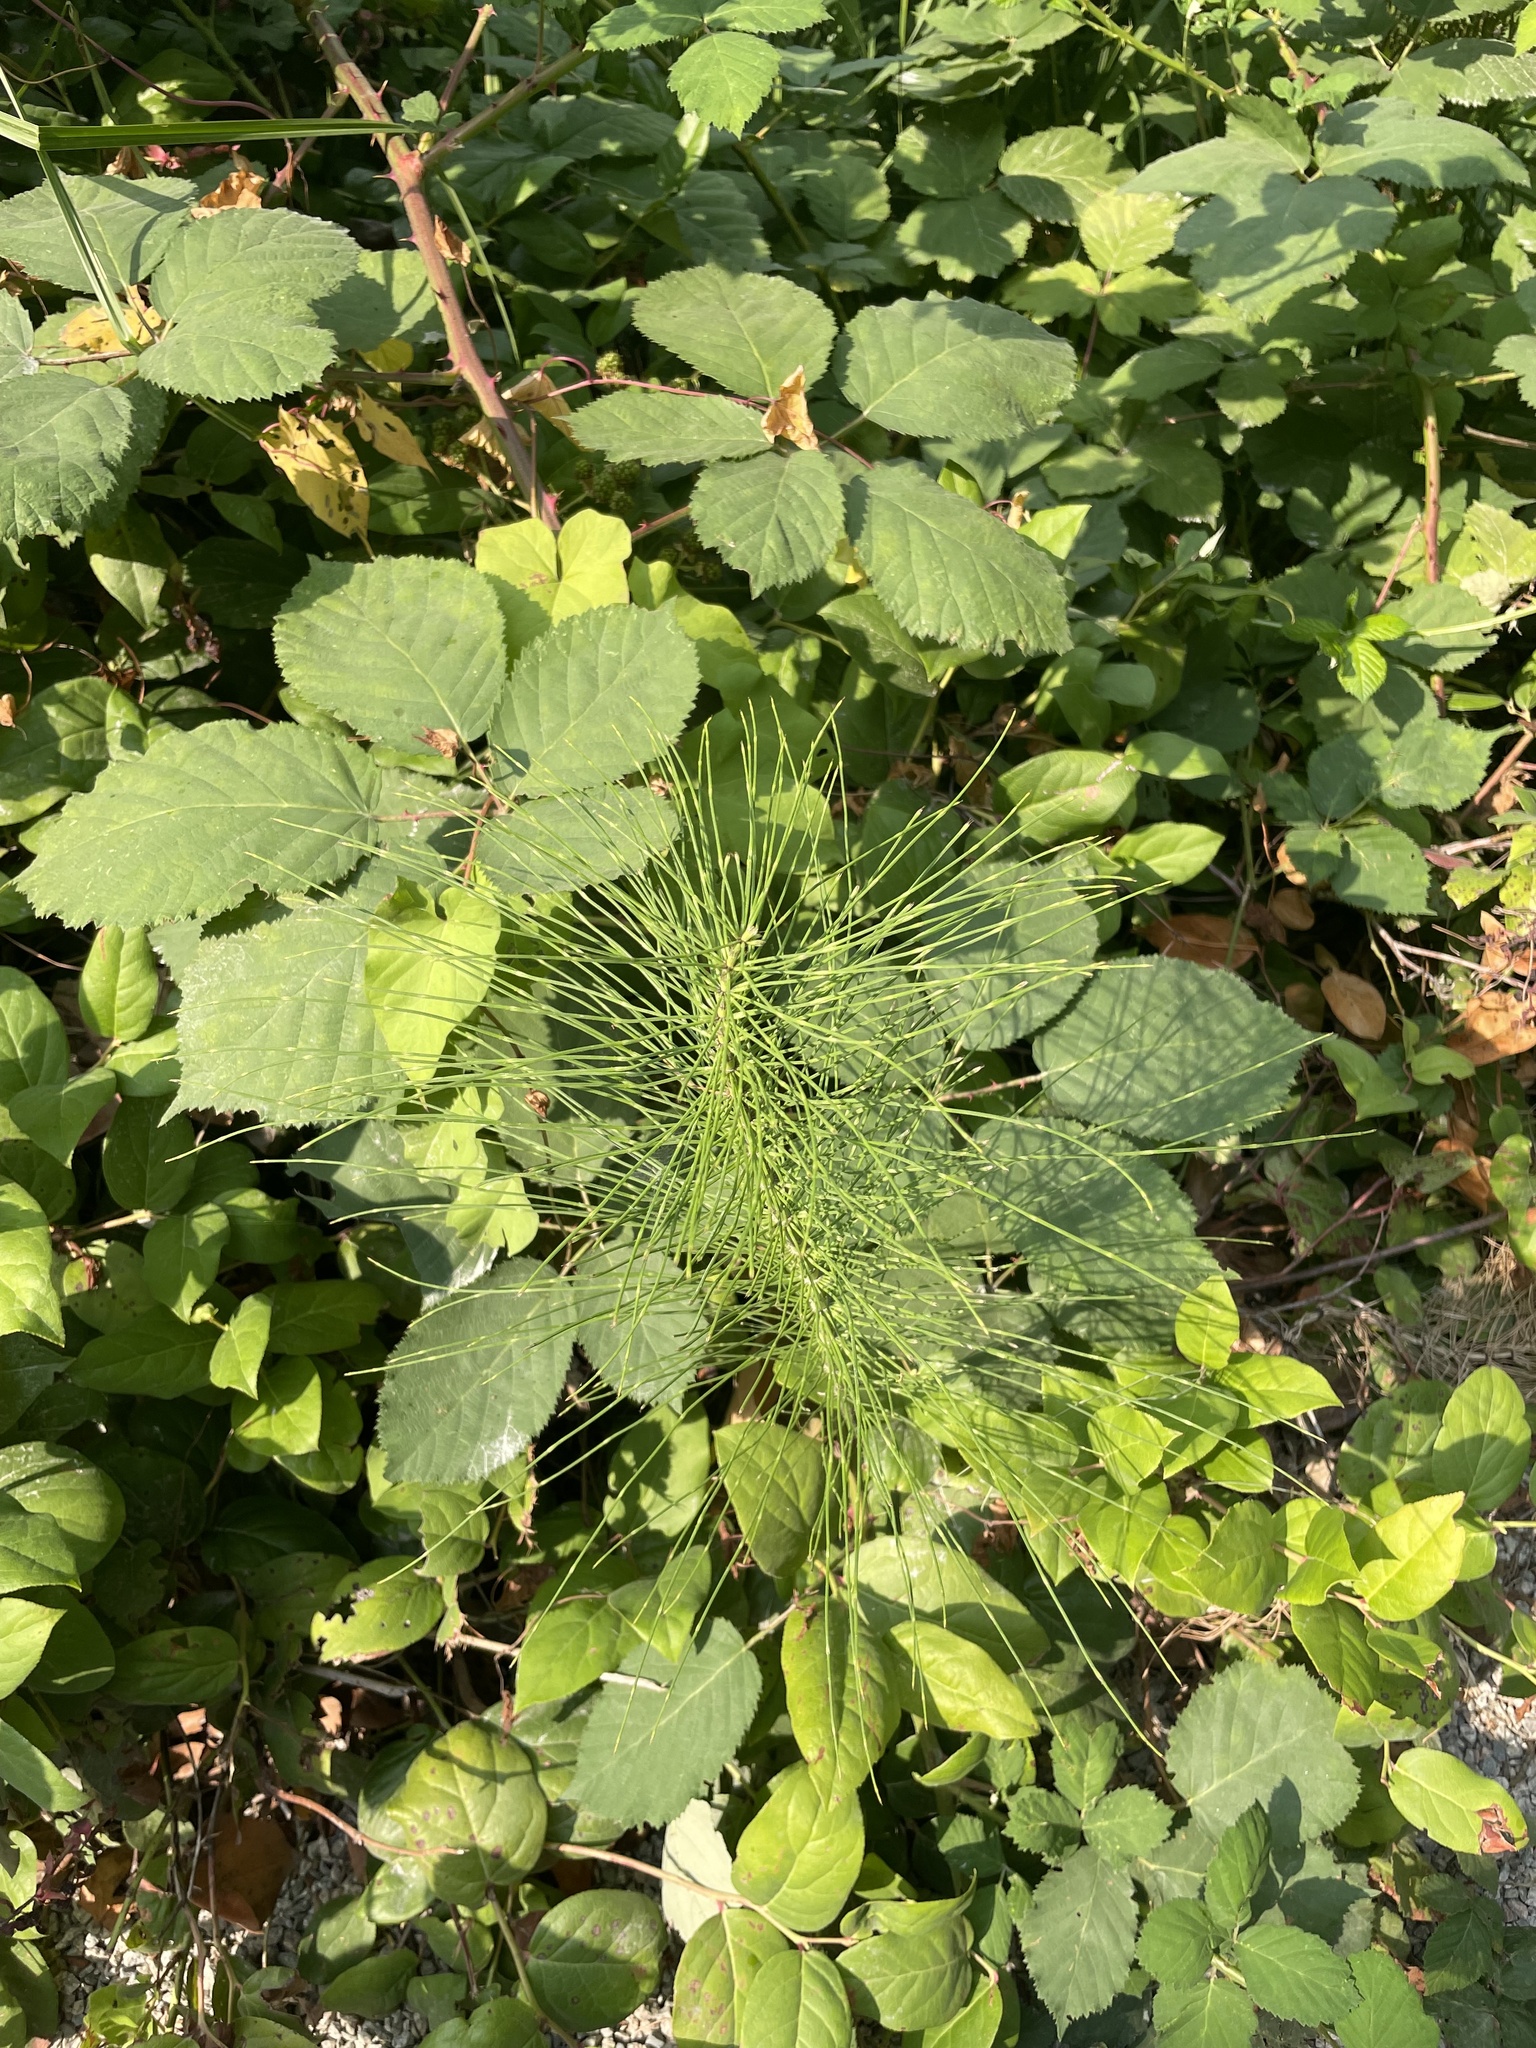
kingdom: Plantae
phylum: Tracheophyta
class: Polypodiopsida
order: Equisetales
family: Equisetaceae
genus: Equisetum
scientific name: Equisetum telmateia
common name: Great horsetail
